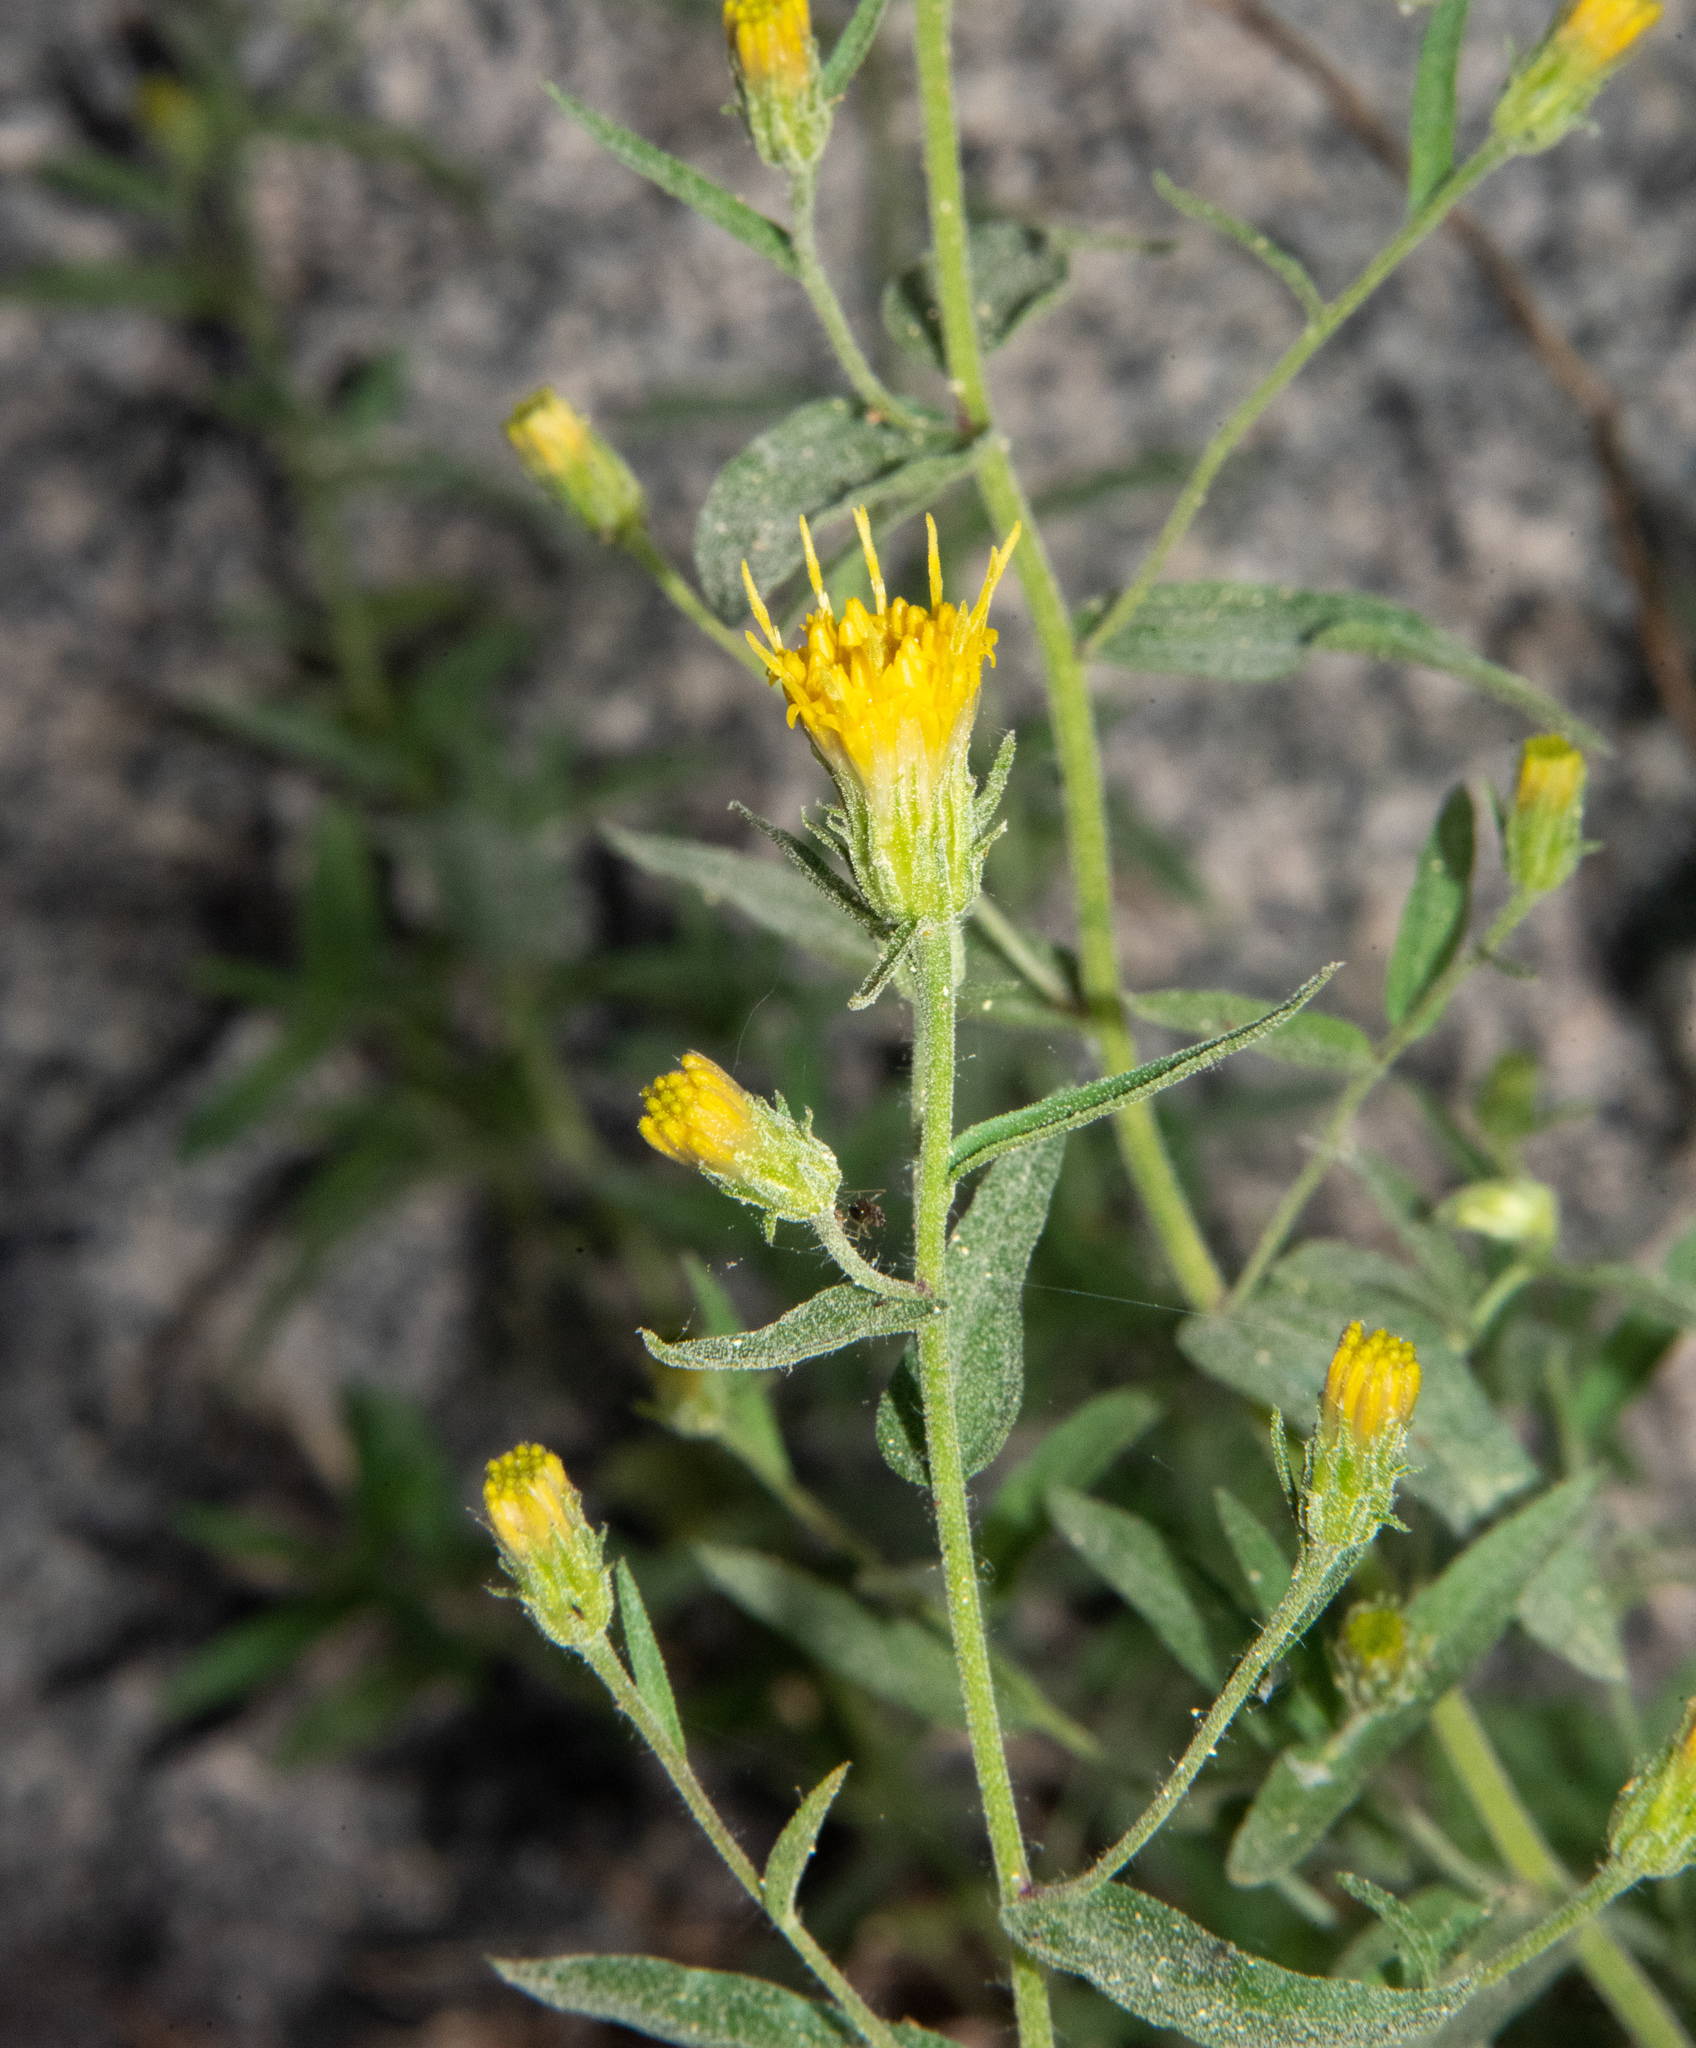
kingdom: Plantae
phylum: Tracheophyta
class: Magnoliopsida
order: Asterales
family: Asteraceae
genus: Eucephalus
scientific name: Eucephalus breweri
